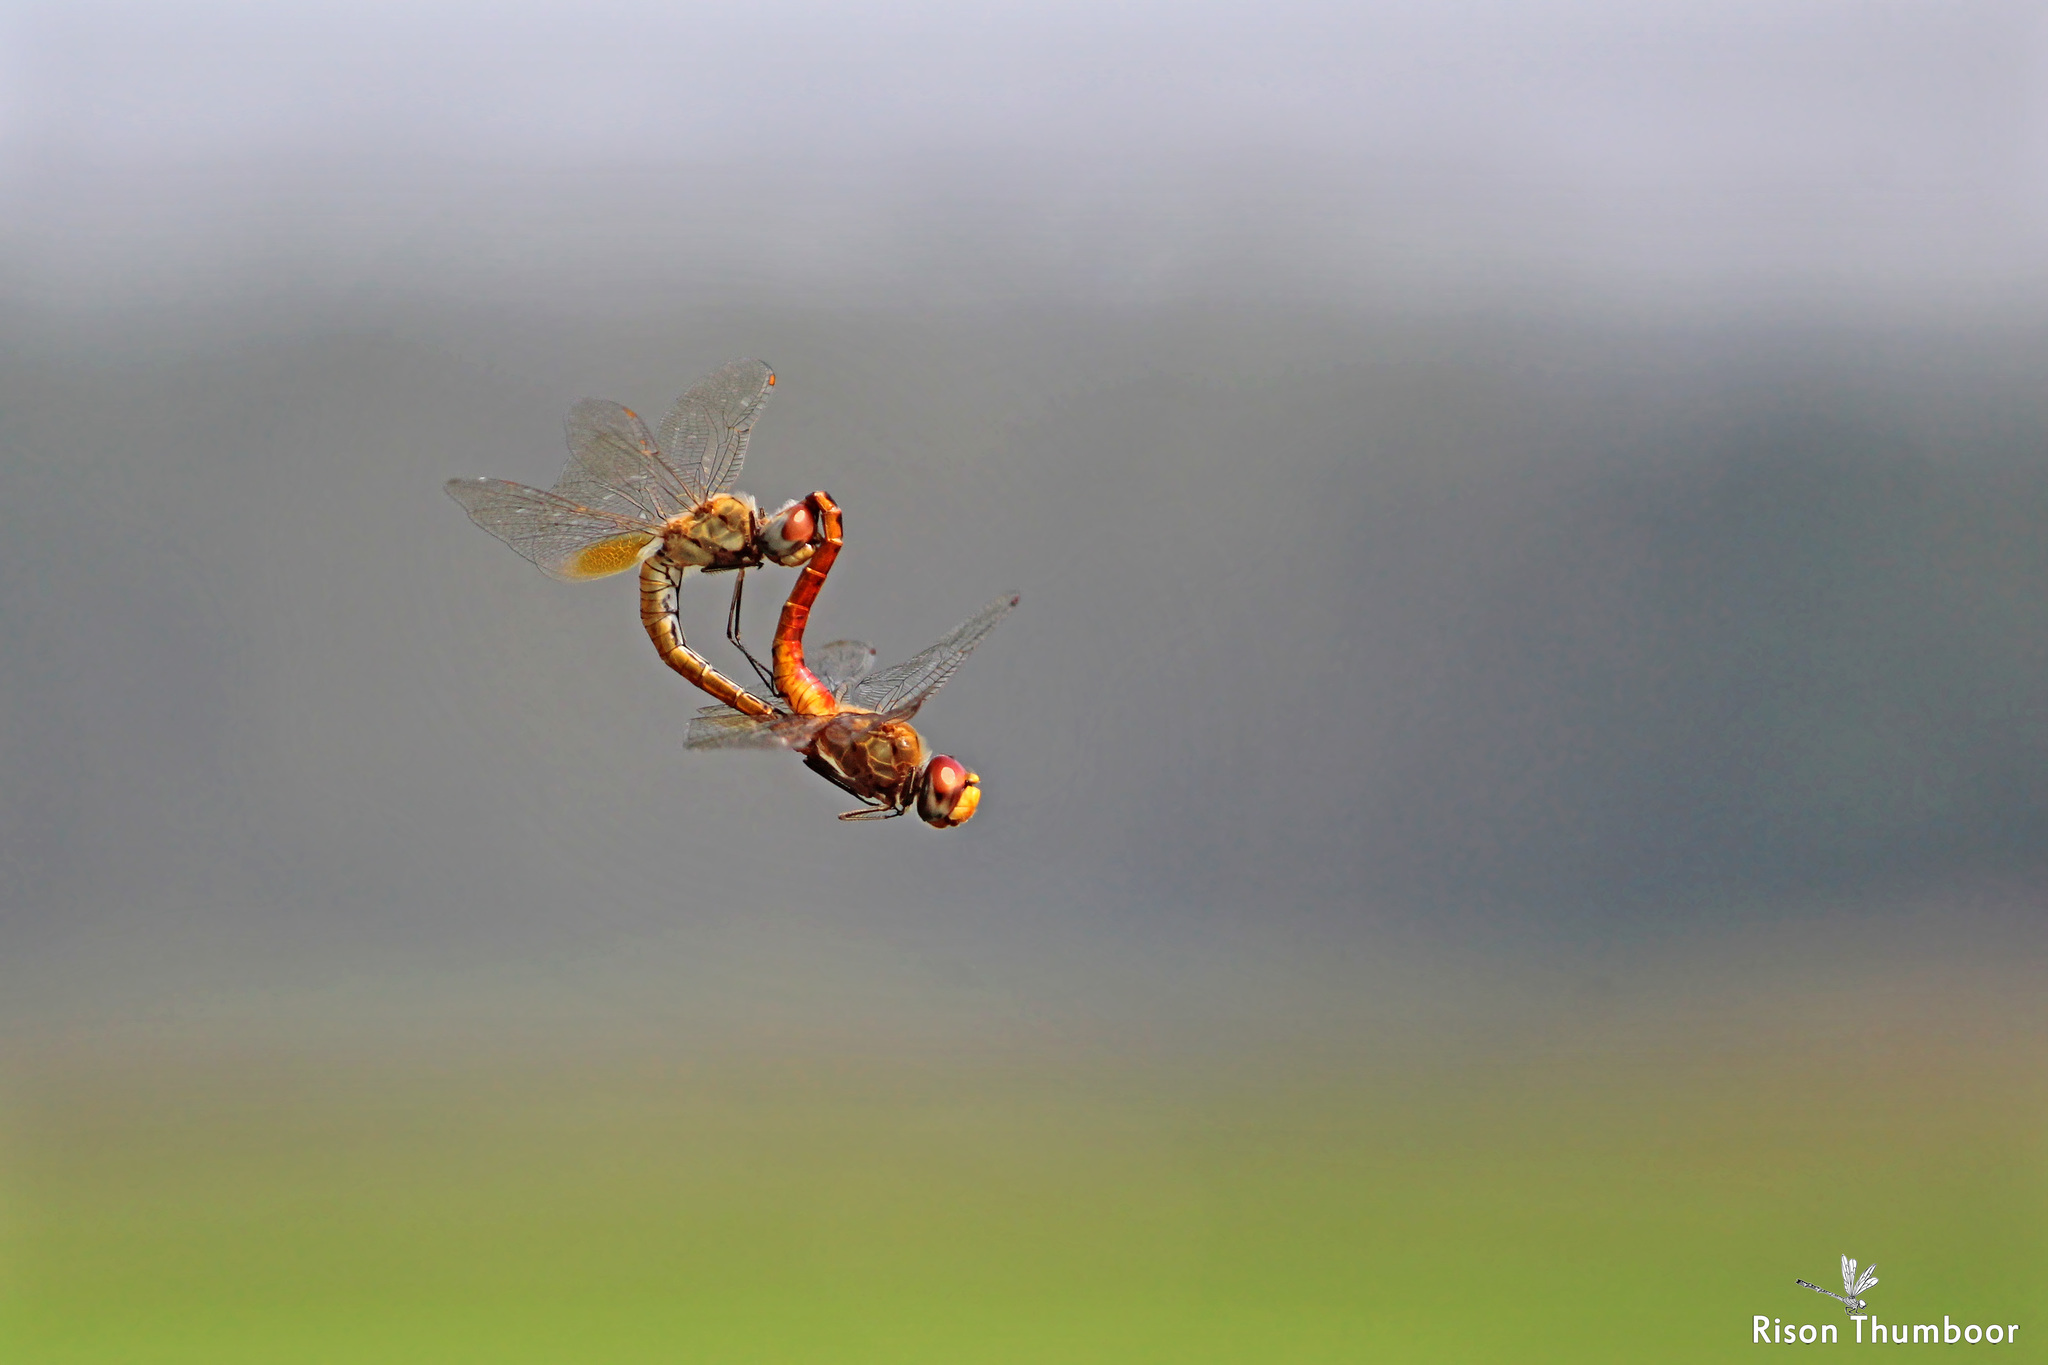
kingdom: Animalia
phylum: Arthropoda
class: Insecta
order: Odonata
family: Libellulidae
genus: Pantala
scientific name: Pantala flavescens
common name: Wandering glider
